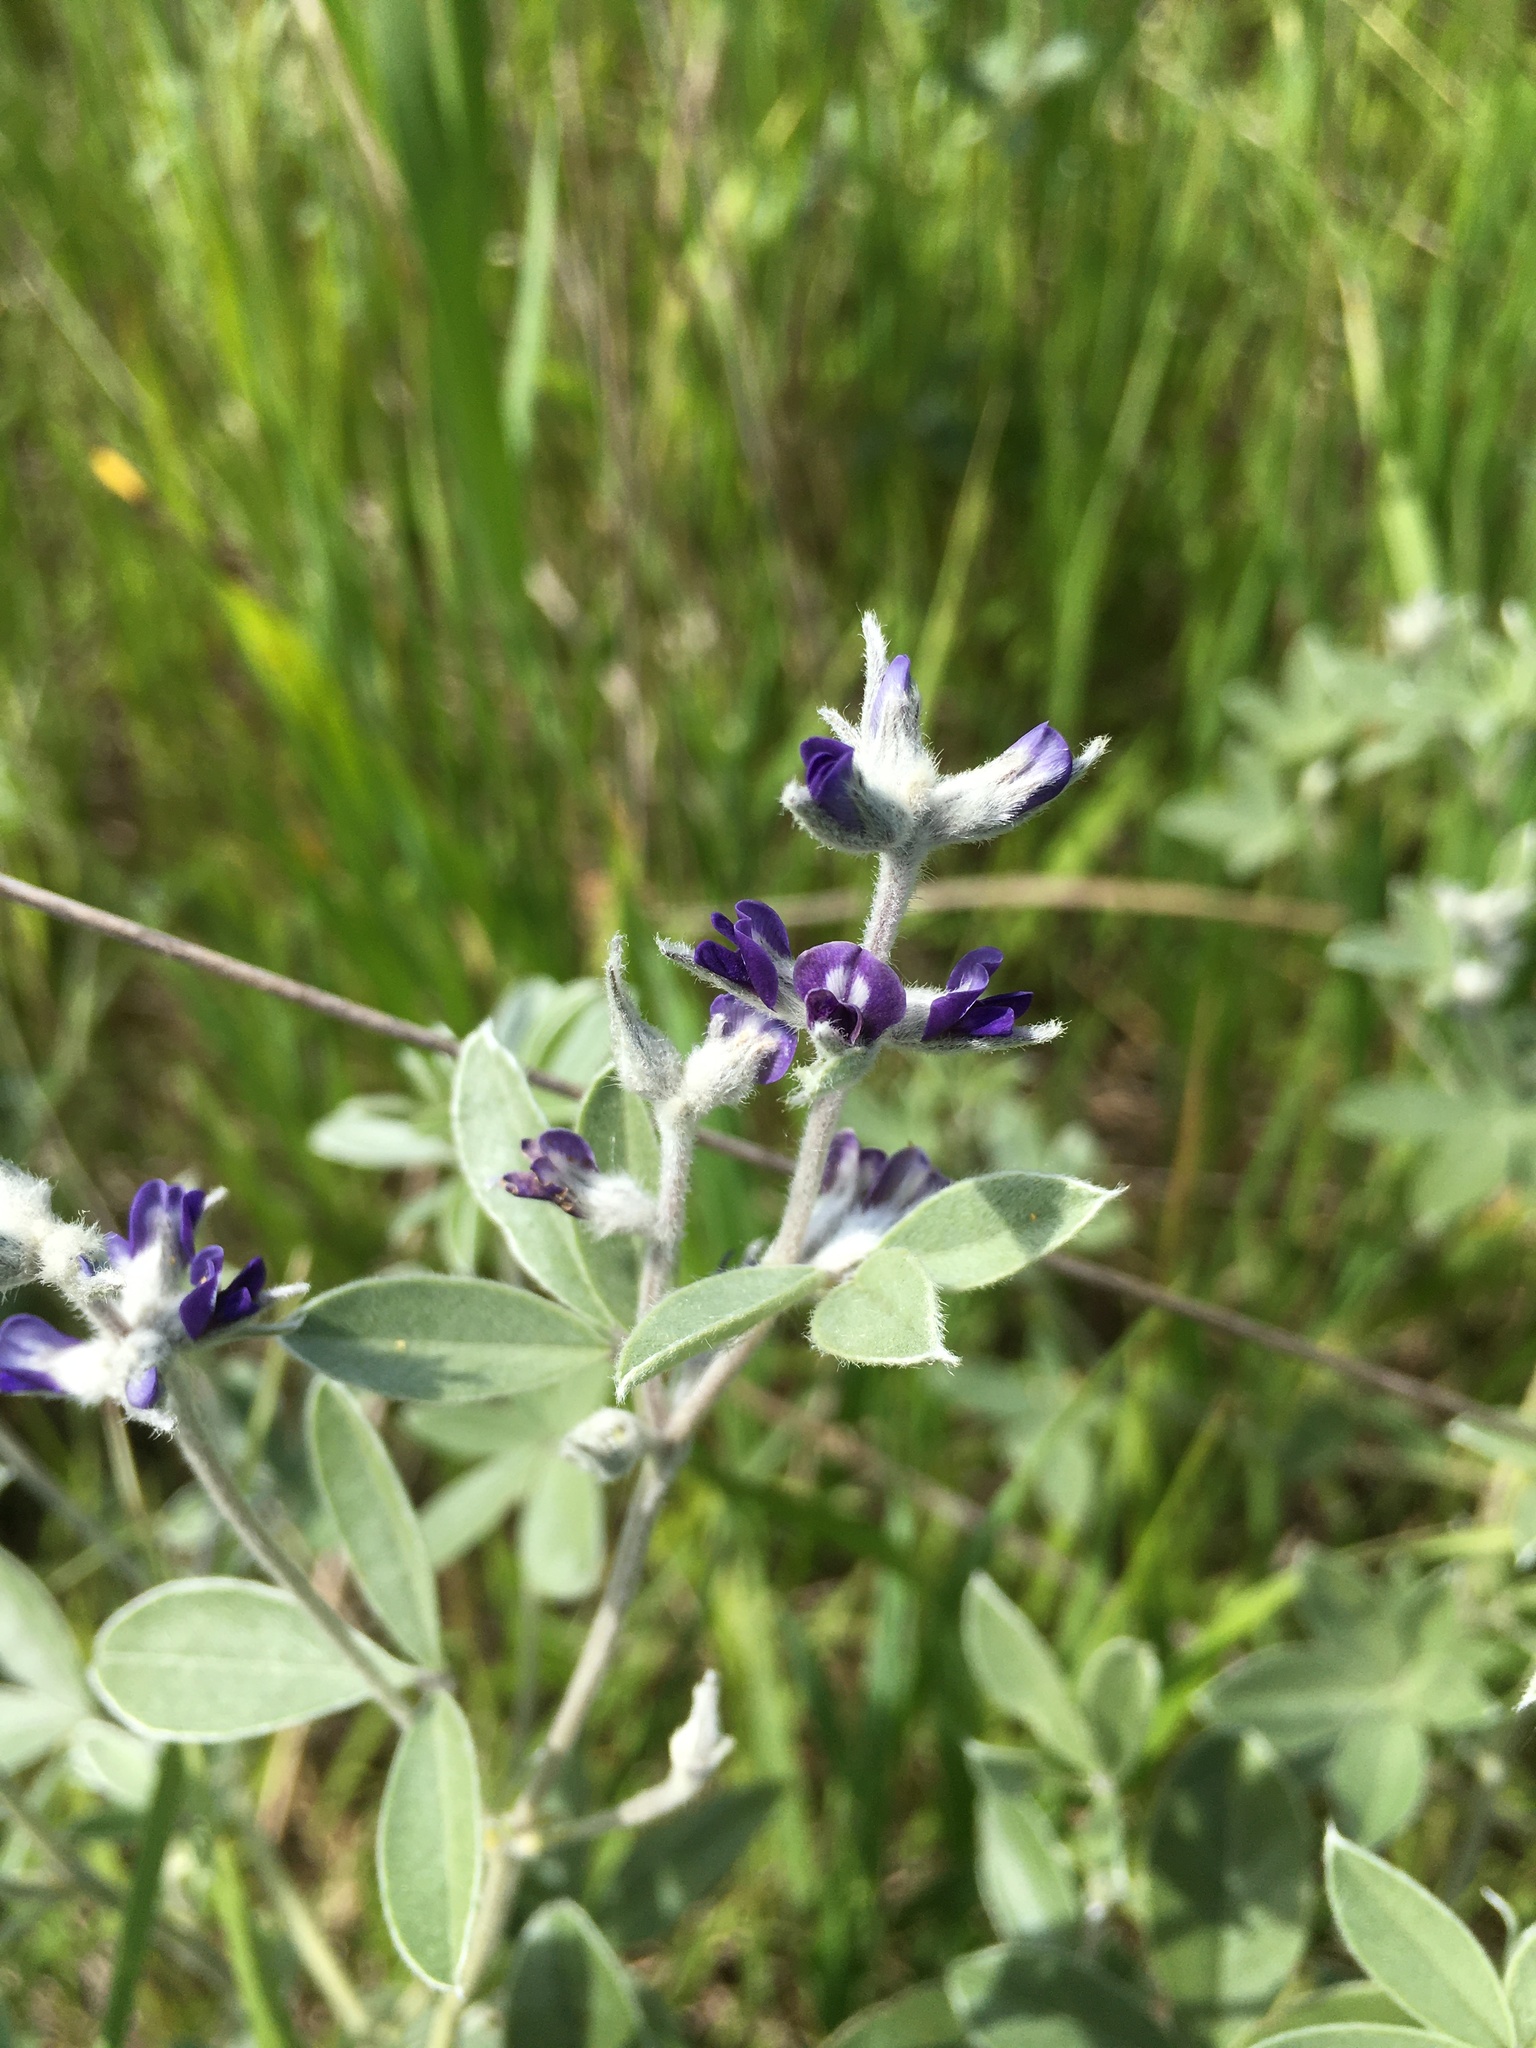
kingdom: Plantae
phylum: Tracheophyta
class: Magnoliopsida
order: Fabales
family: Fabaceae
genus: Pediomelum
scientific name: Pediomelum argophyllum
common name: Silver-leaved indian breadroot
